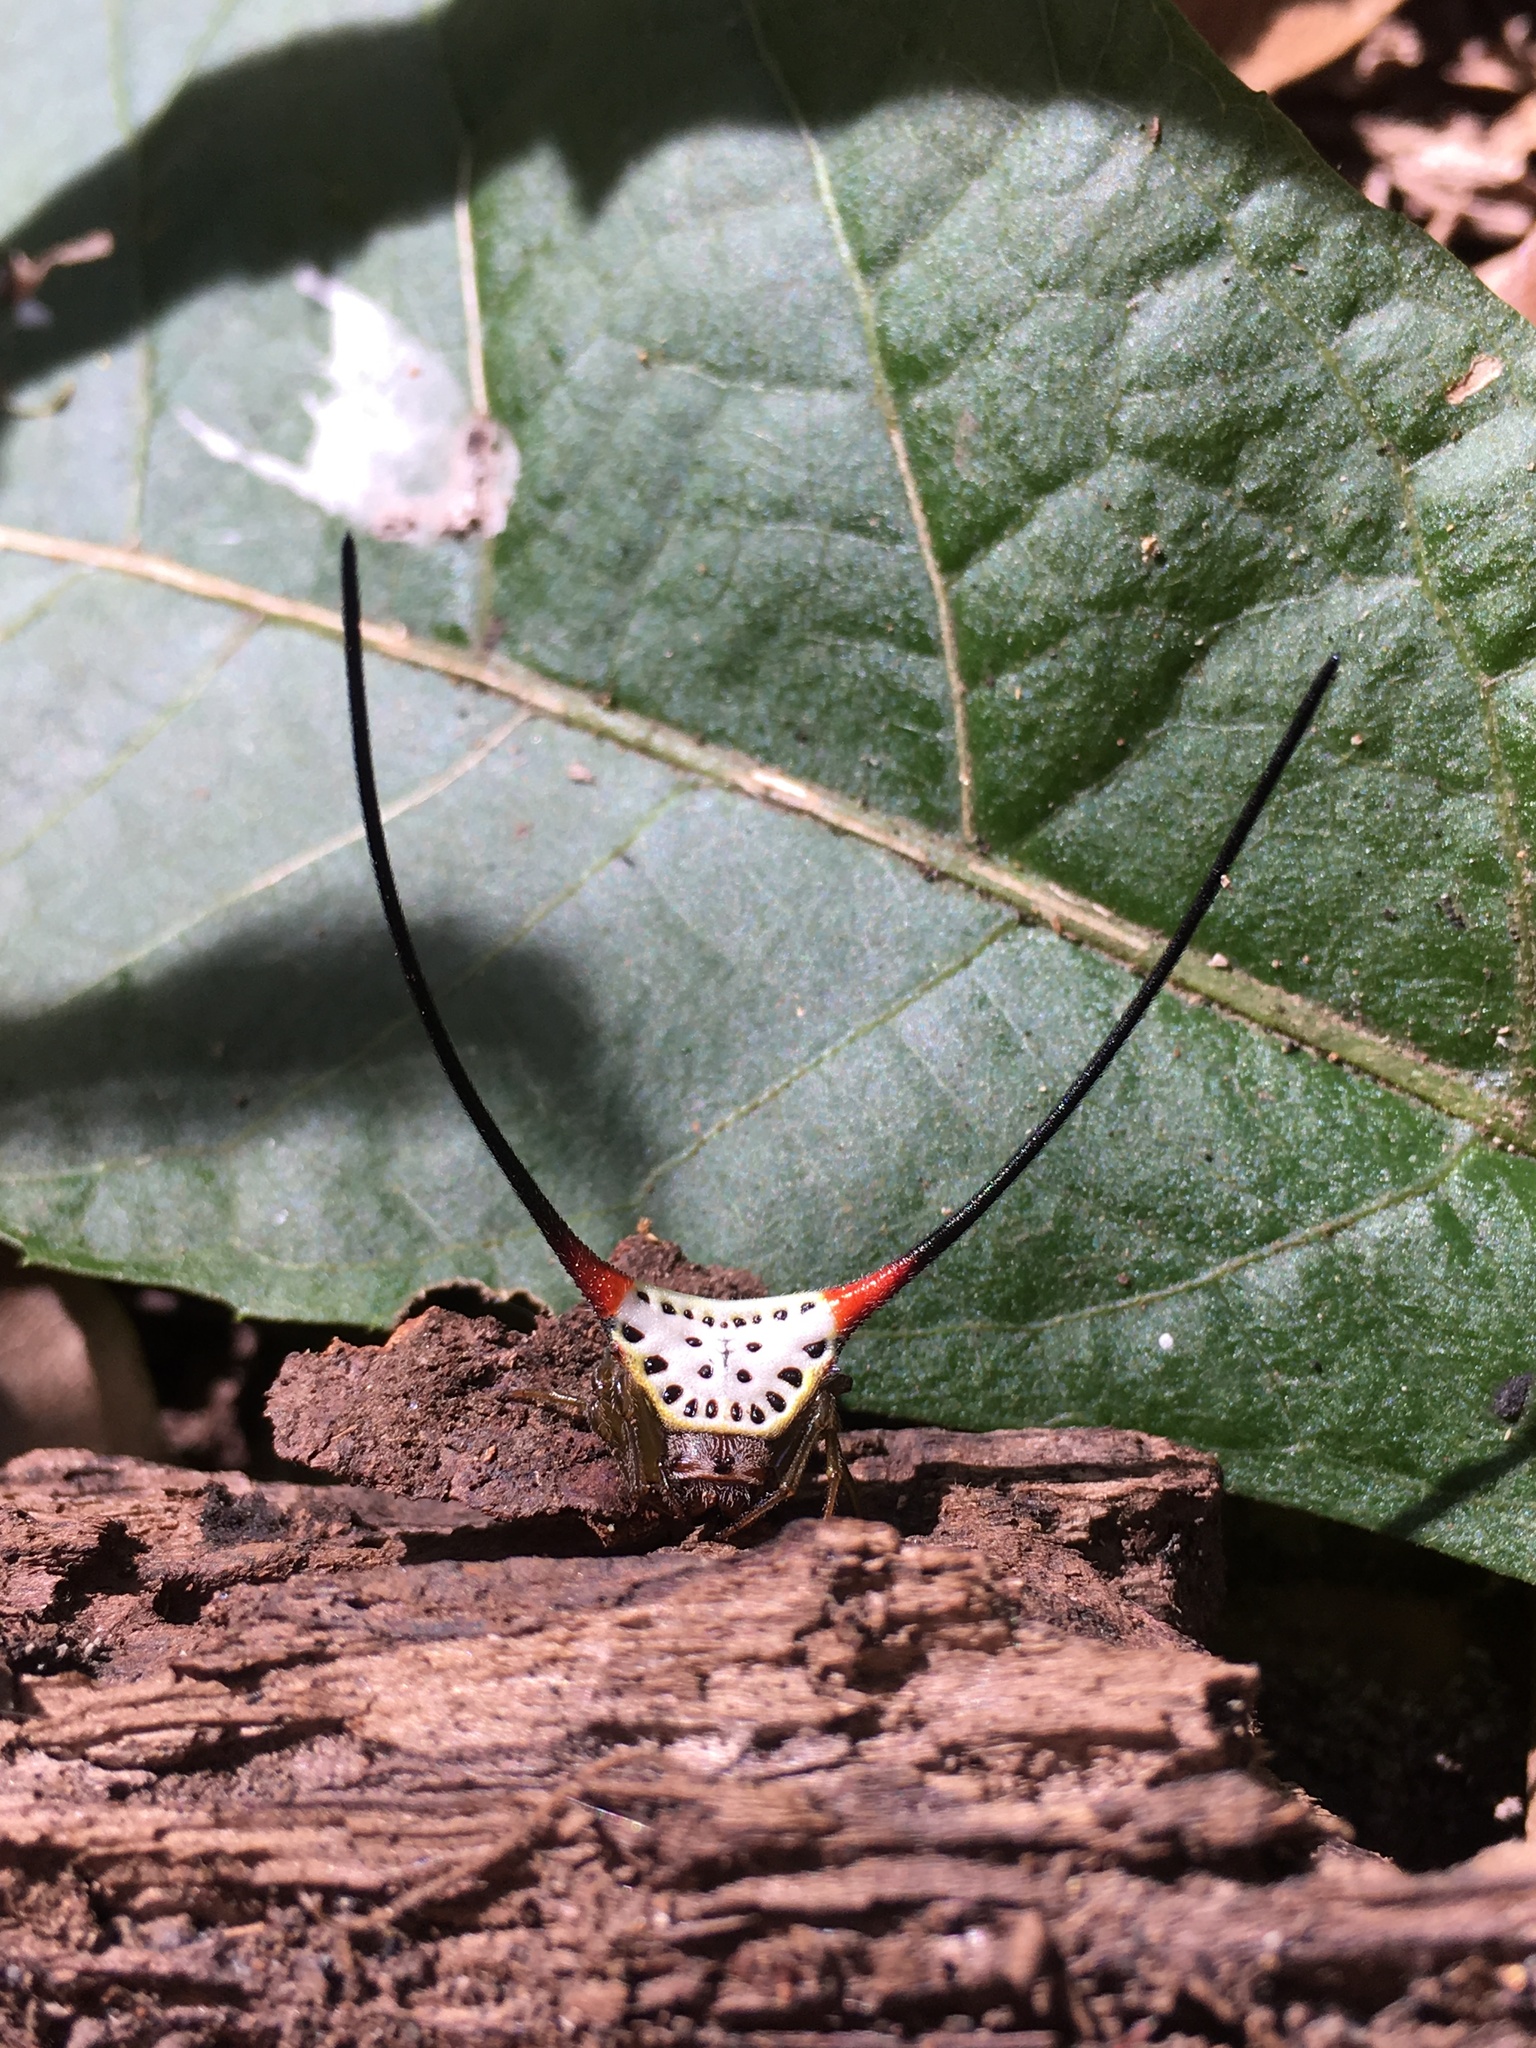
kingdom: Animalia
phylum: Arthropoda
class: Arachnida
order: Araneae
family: Araneidae
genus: Macracantha
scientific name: Macracantha arcuata
